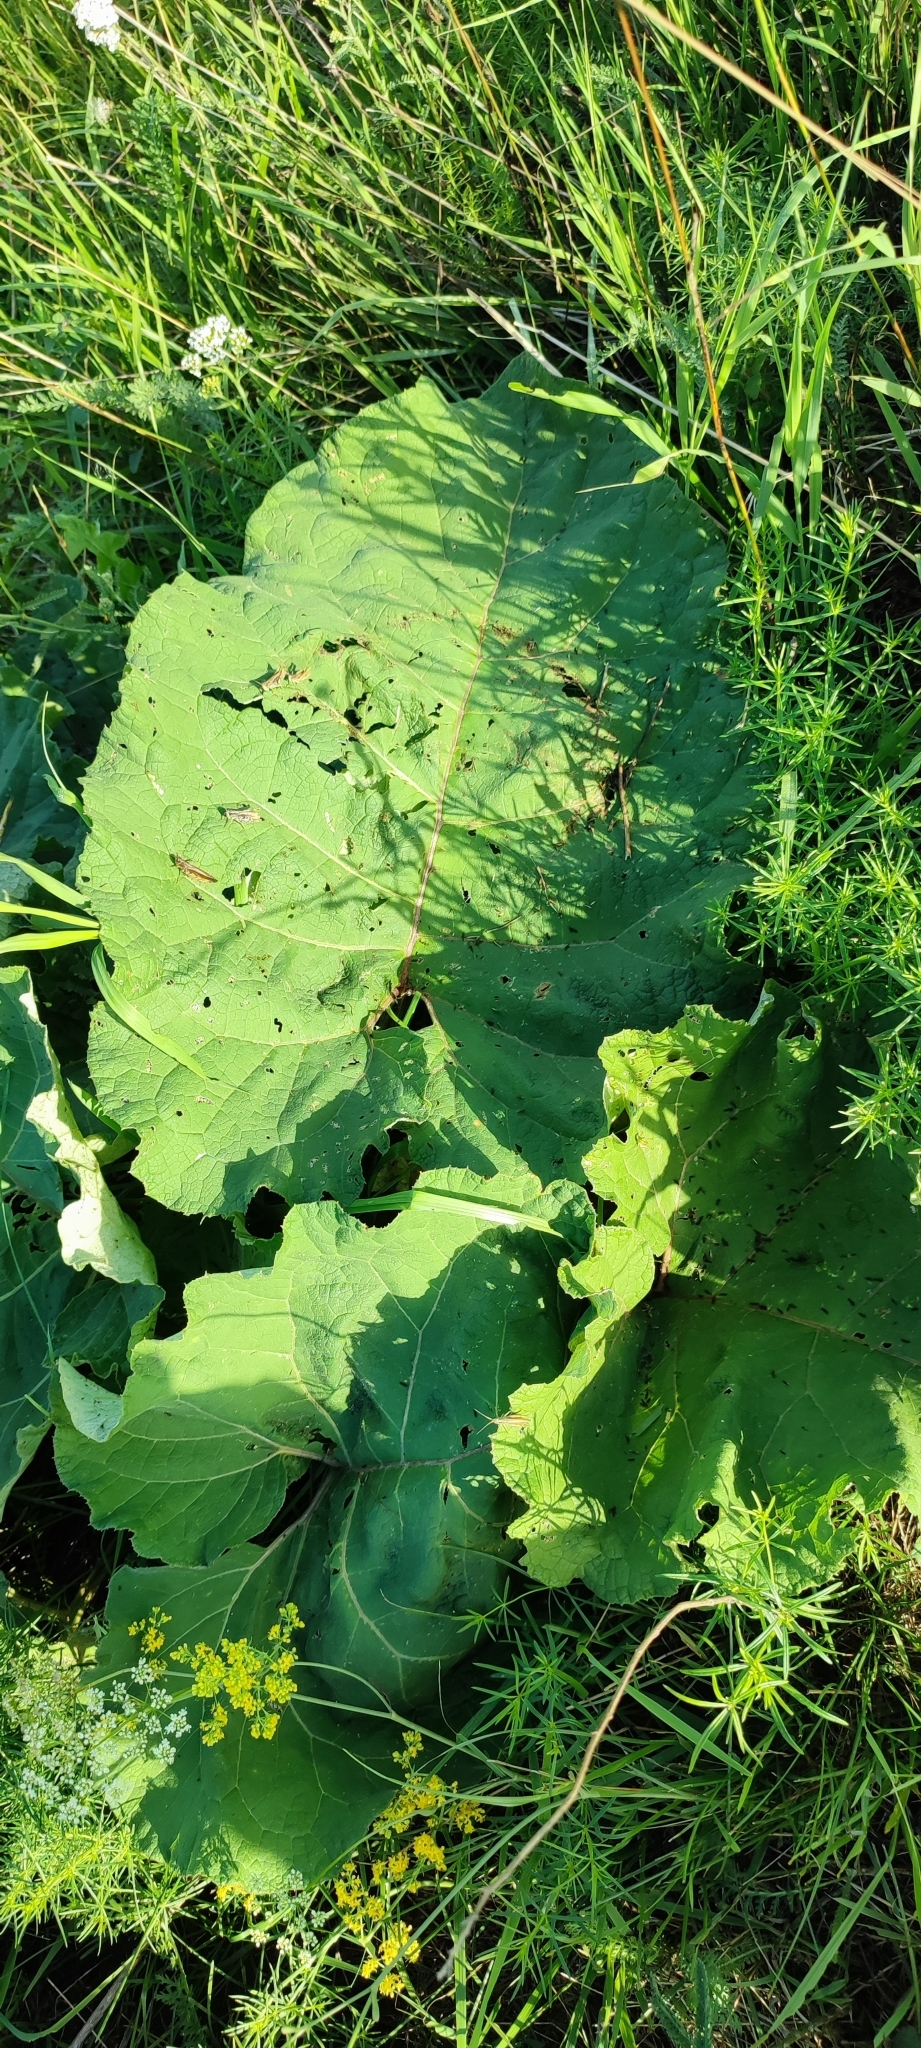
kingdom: Plantae
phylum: Tracheophyta
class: Magnoliopsida
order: Asterales
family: Asteraceae
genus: Arctium
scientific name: Arctium tomentosum
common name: Woolly burdock
